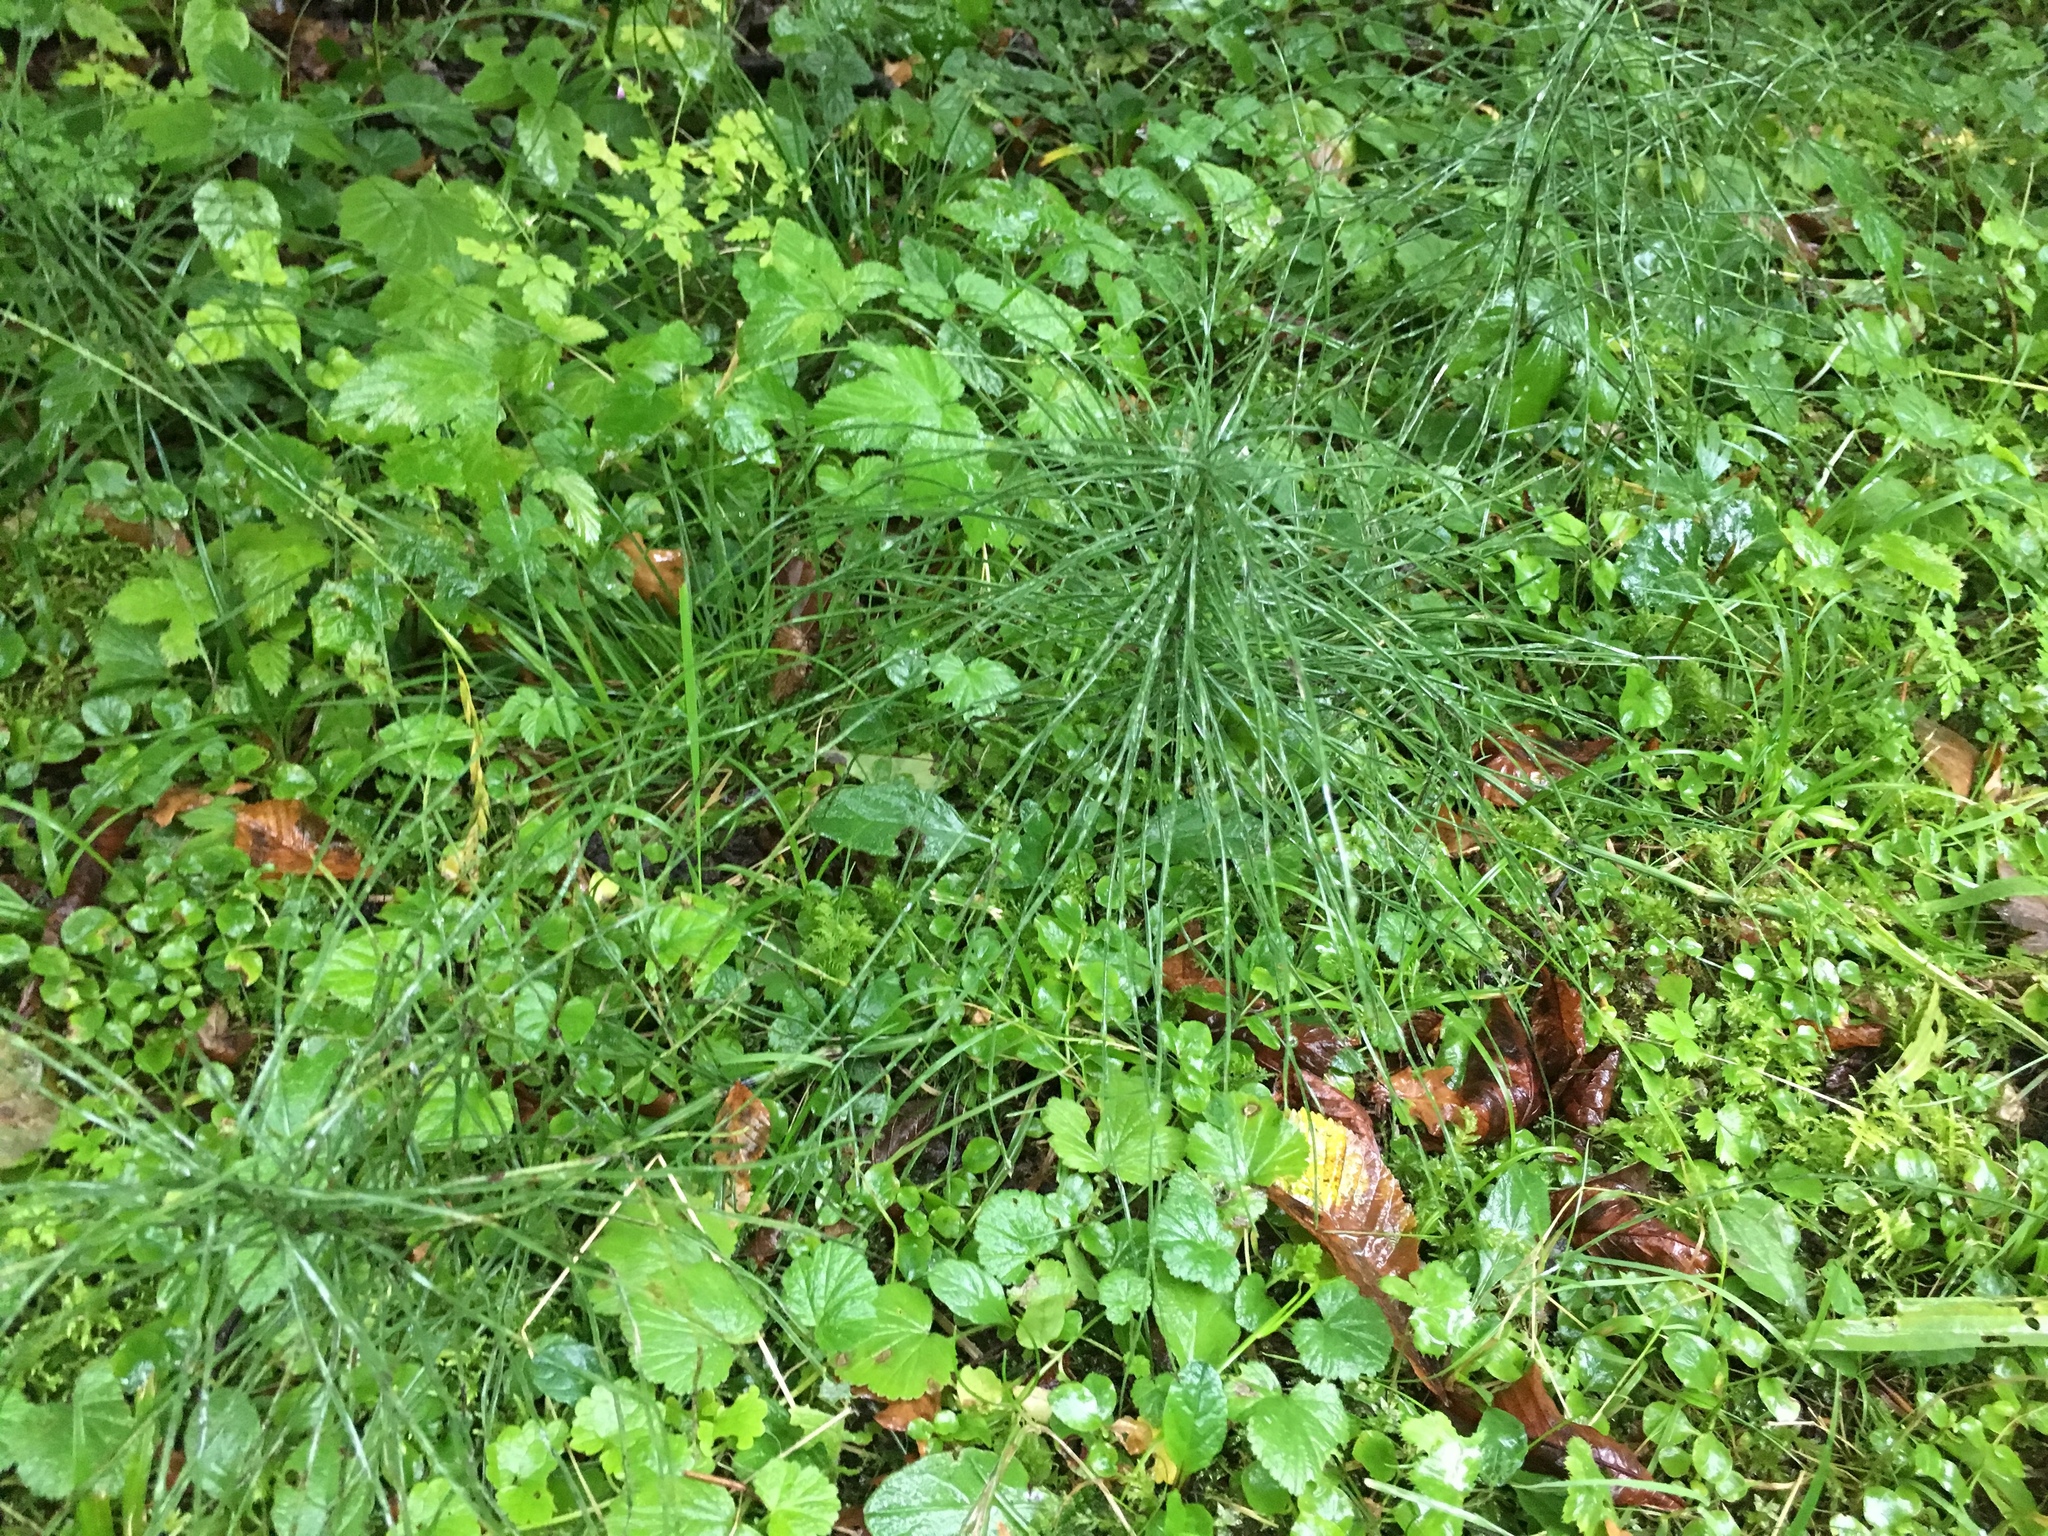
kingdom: Plantae
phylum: Tracheophyta
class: Polypodiopsida
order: Equisetales
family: Equisetaceae
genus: Equisetum
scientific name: Equisetum arvense
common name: Field horsetail
